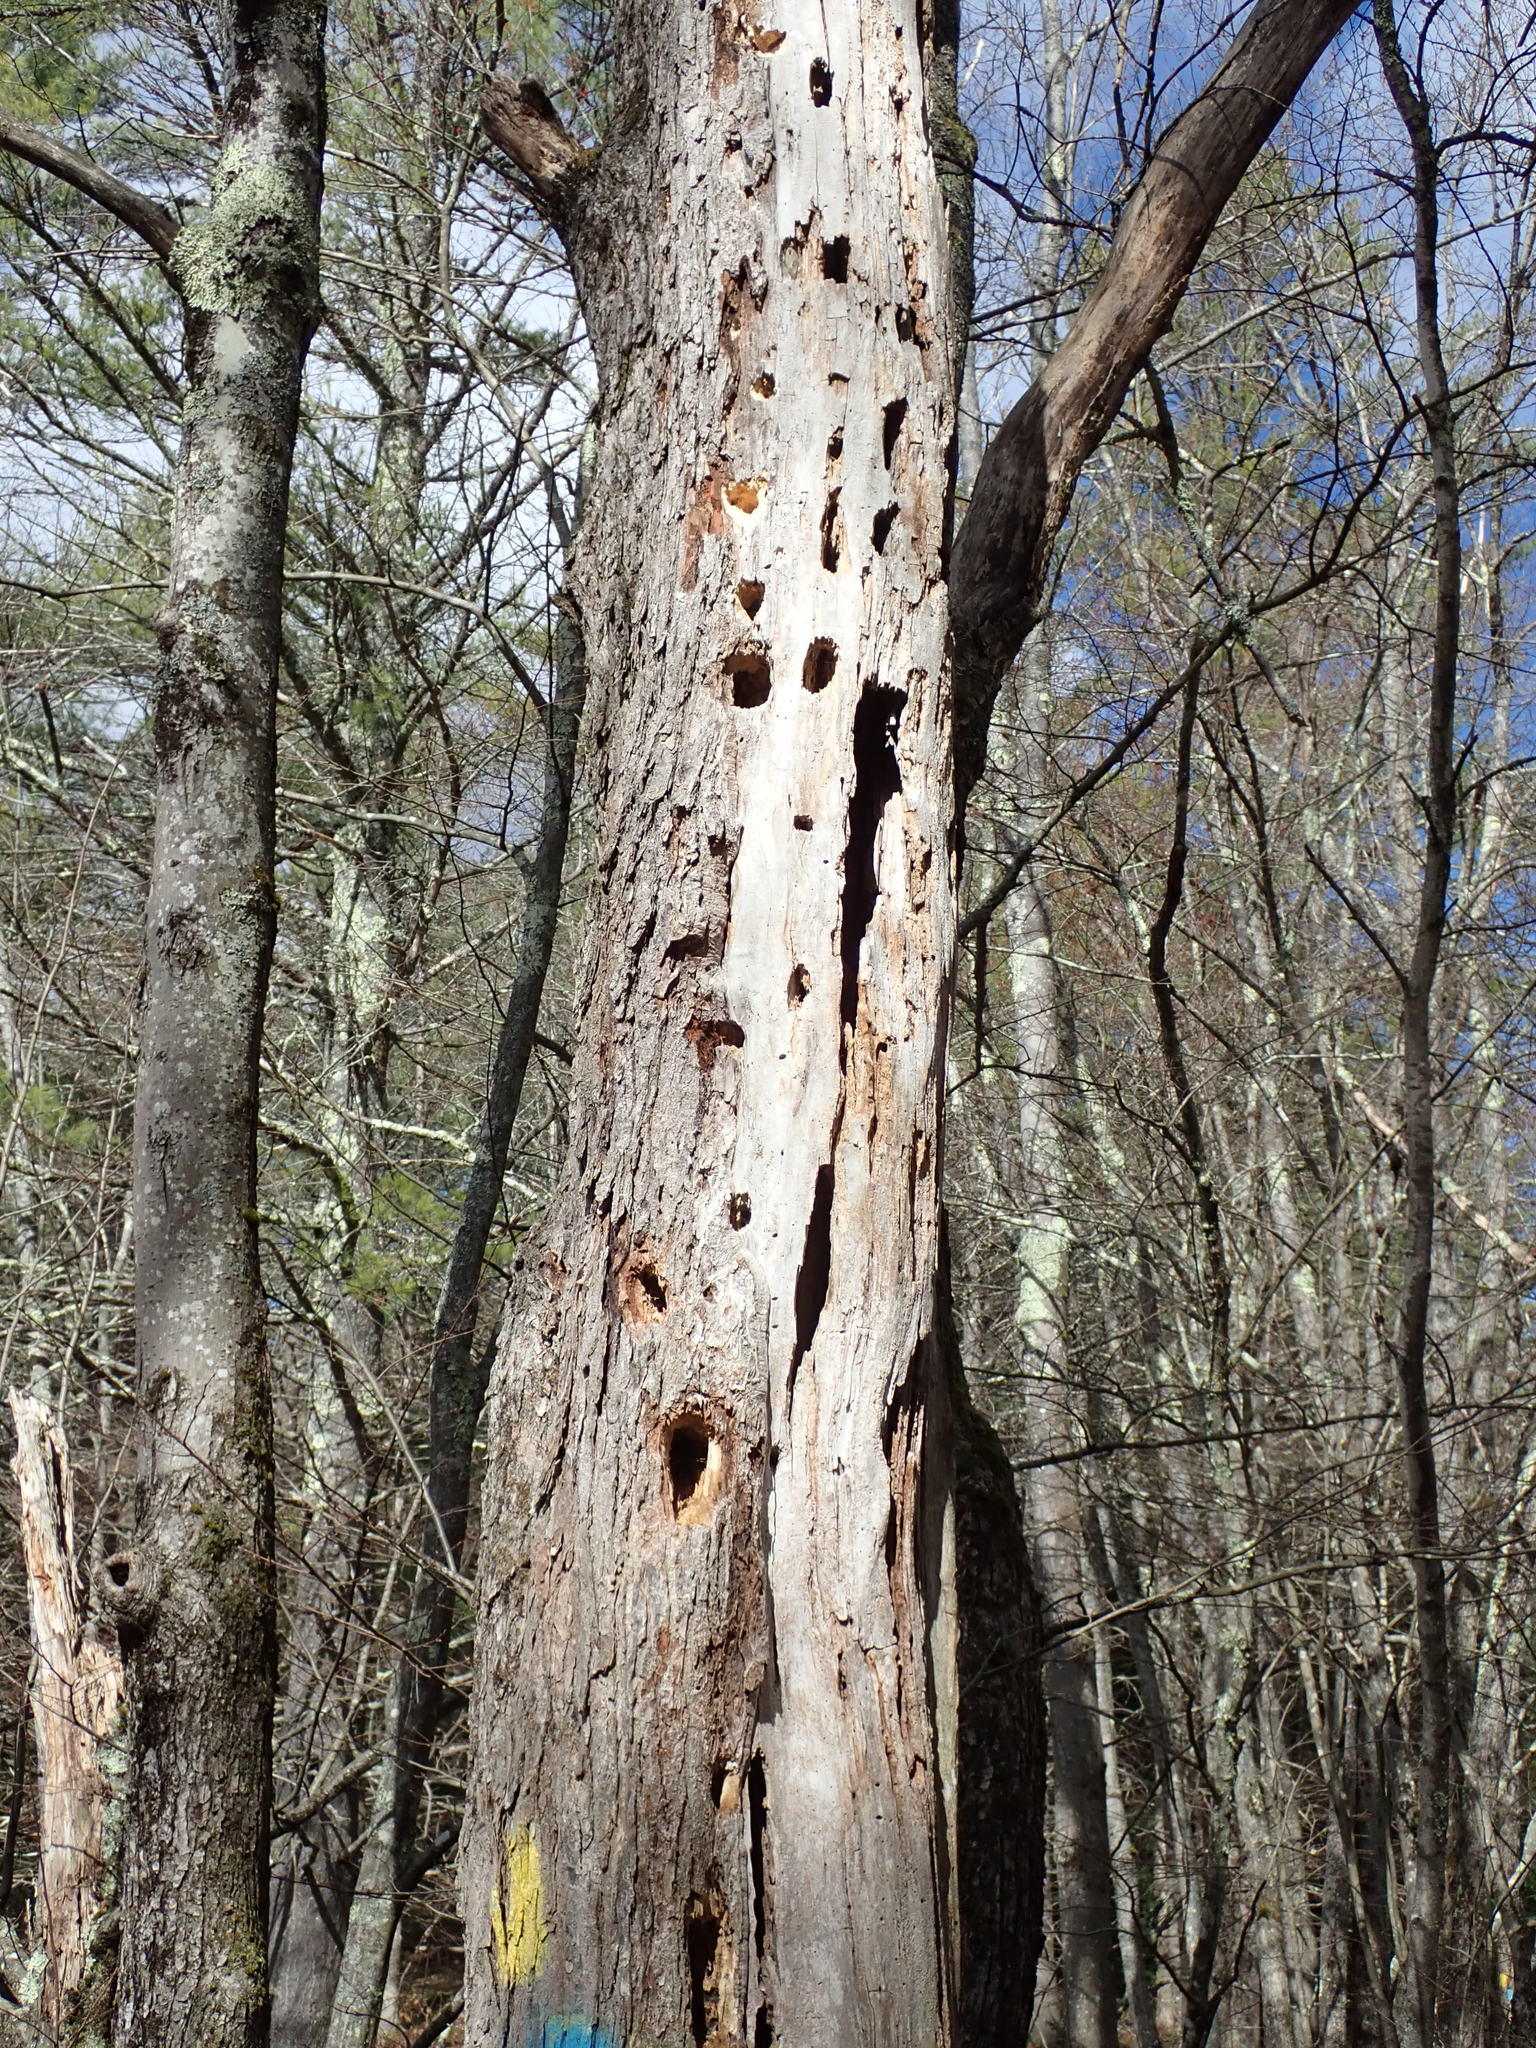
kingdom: Animalia
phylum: Chordata
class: Aves
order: Piciformes
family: Picidae
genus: Dryocopus
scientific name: Dryocopus pileatus
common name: Pileated woodpecker
